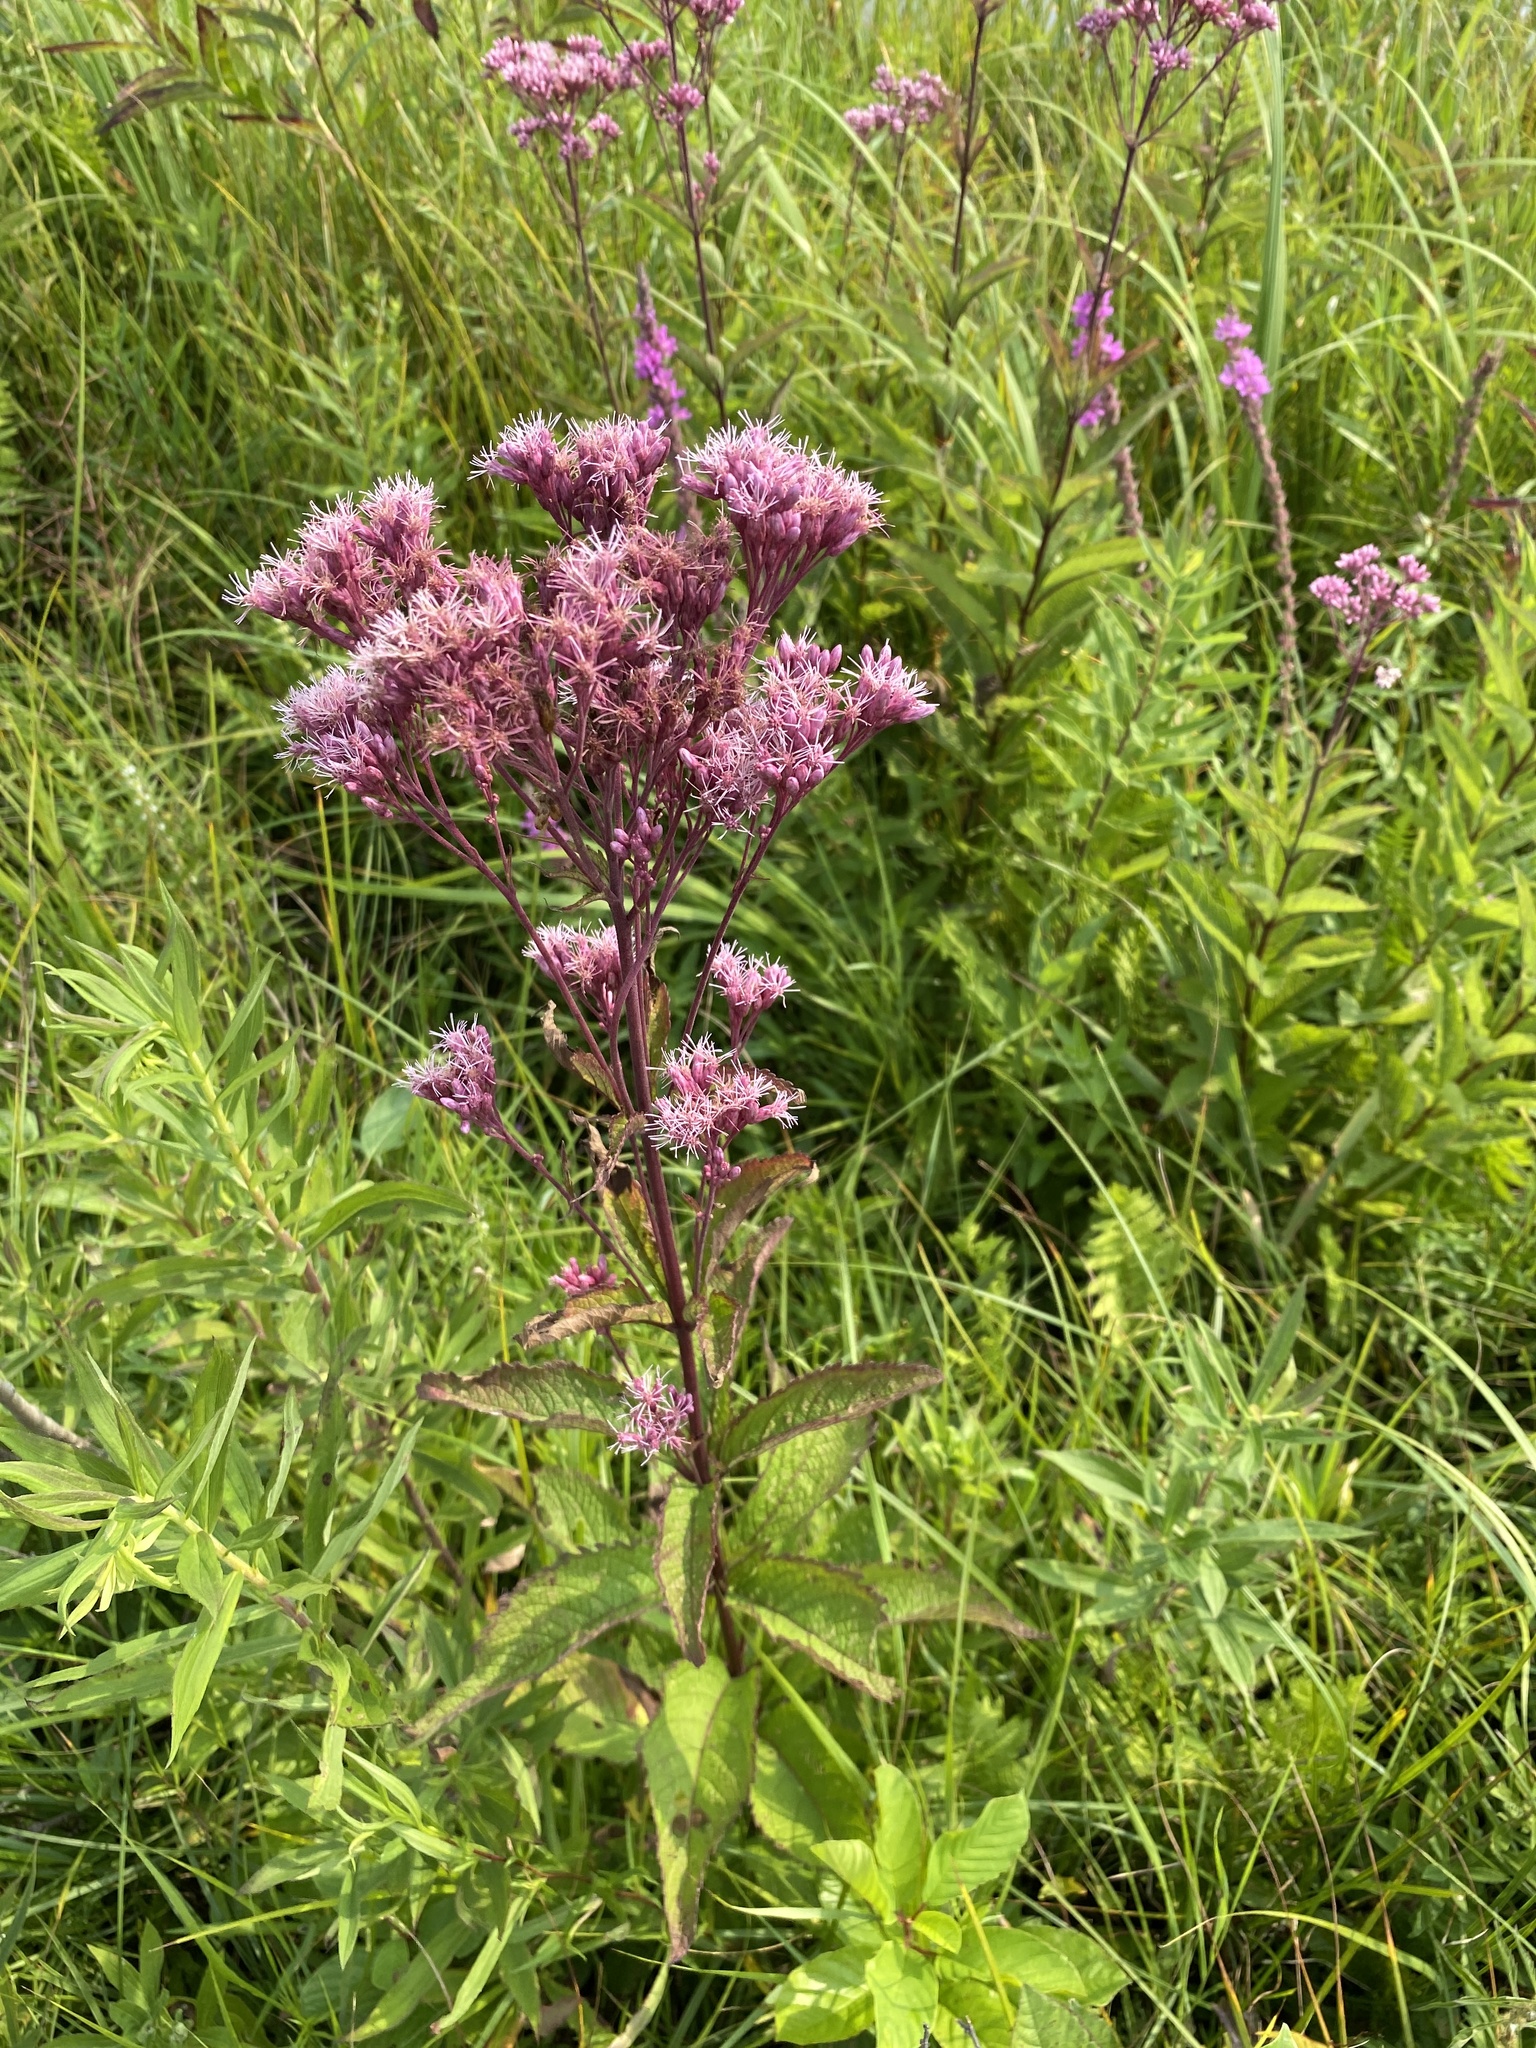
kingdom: Plantae
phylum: Tracheophyta
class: Magnoliopsida
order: Asterales
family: Asteraceae
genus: Eutrochium
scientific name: Eutrochium maculatum
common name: Spotted joe pye weed
